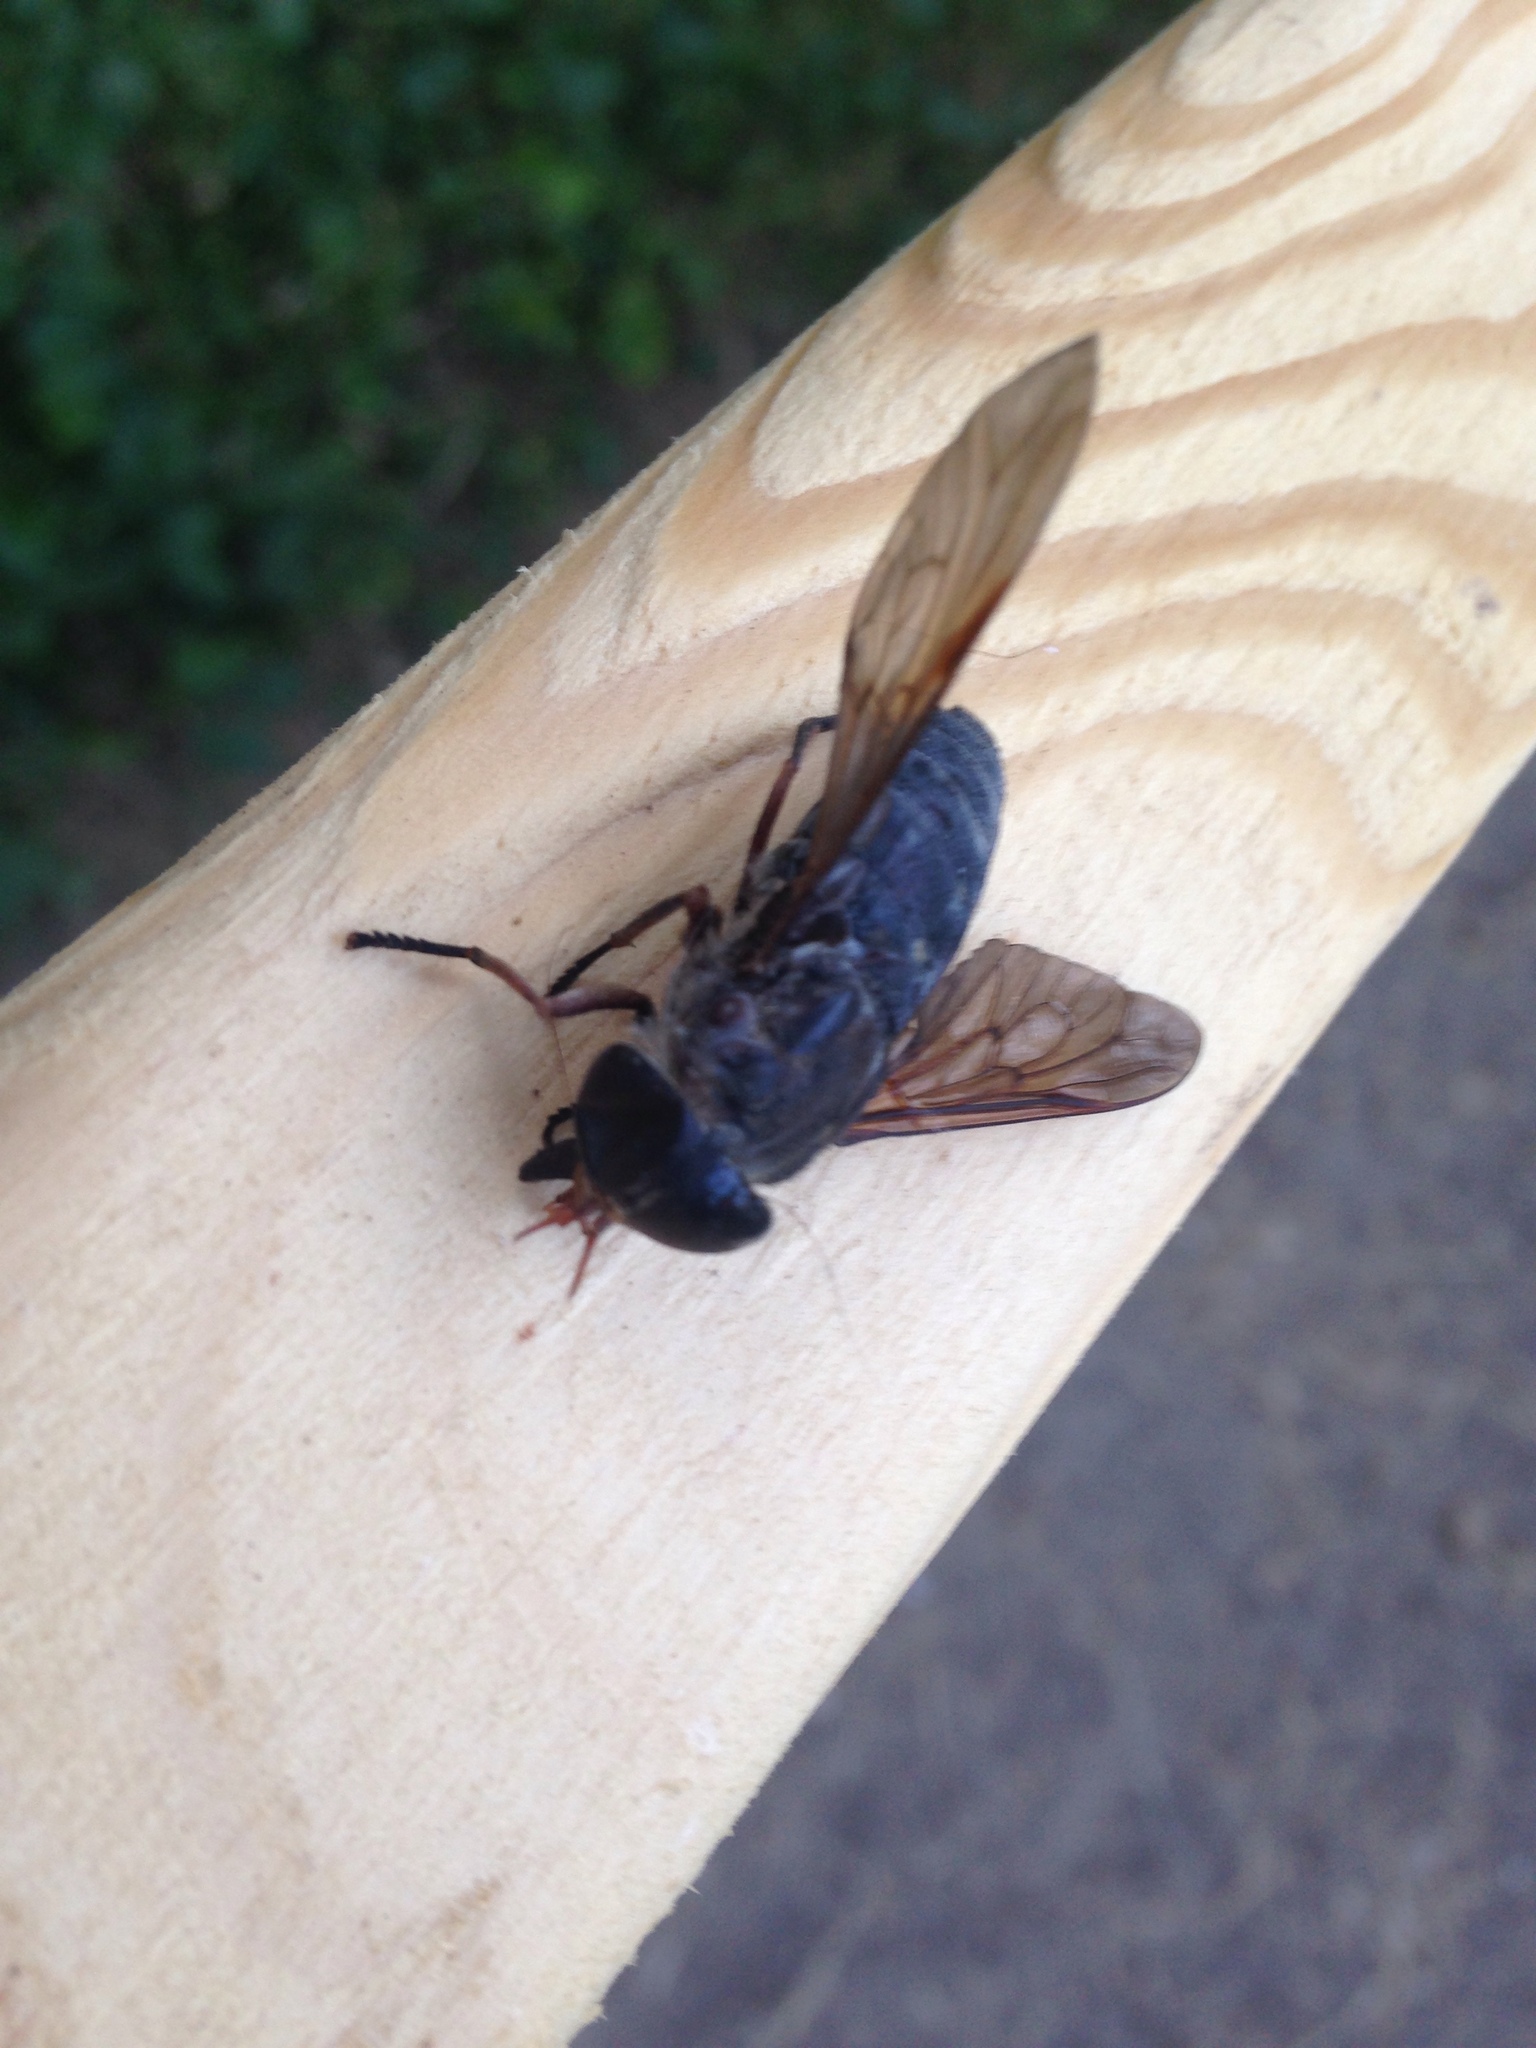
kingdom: Animalia
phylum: Arthropoda
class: Insecta
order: Diptera
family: Tabanidae
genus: Tabanus
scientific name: Tabanus calens
